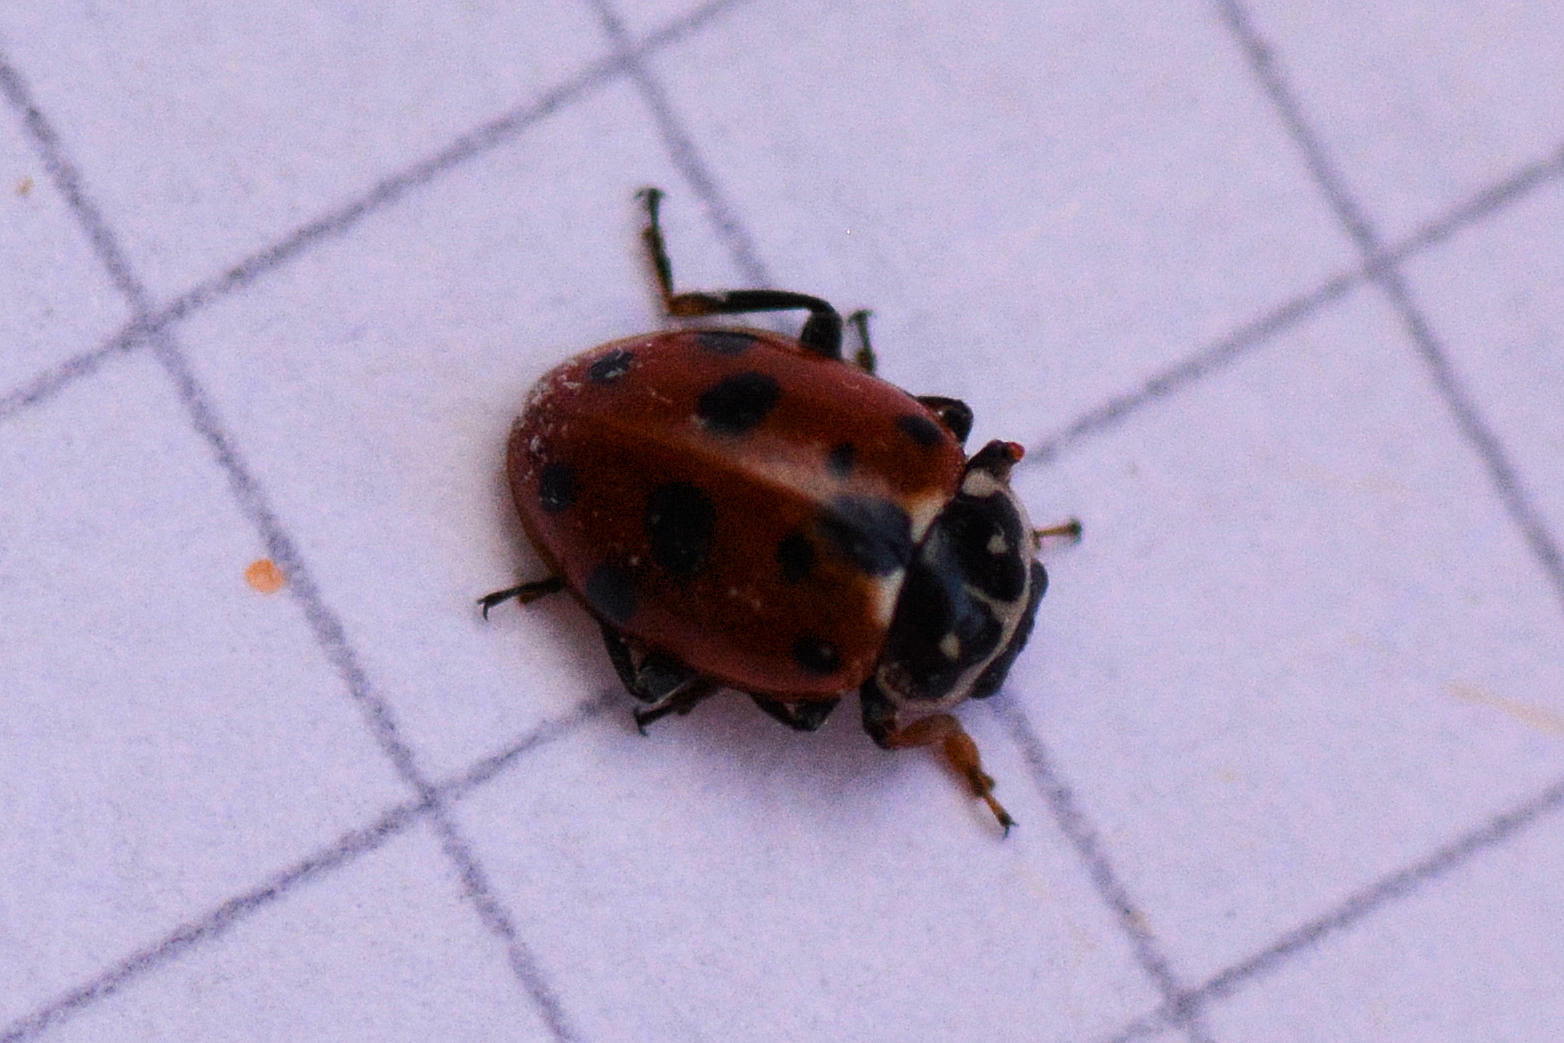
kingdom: Animalia
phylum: Arthropoda
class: Insecta
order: Coleoptera
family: Coccinellidae
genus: Hippodamia
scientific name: Hippodamia variegata
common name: Ladybird beetle
